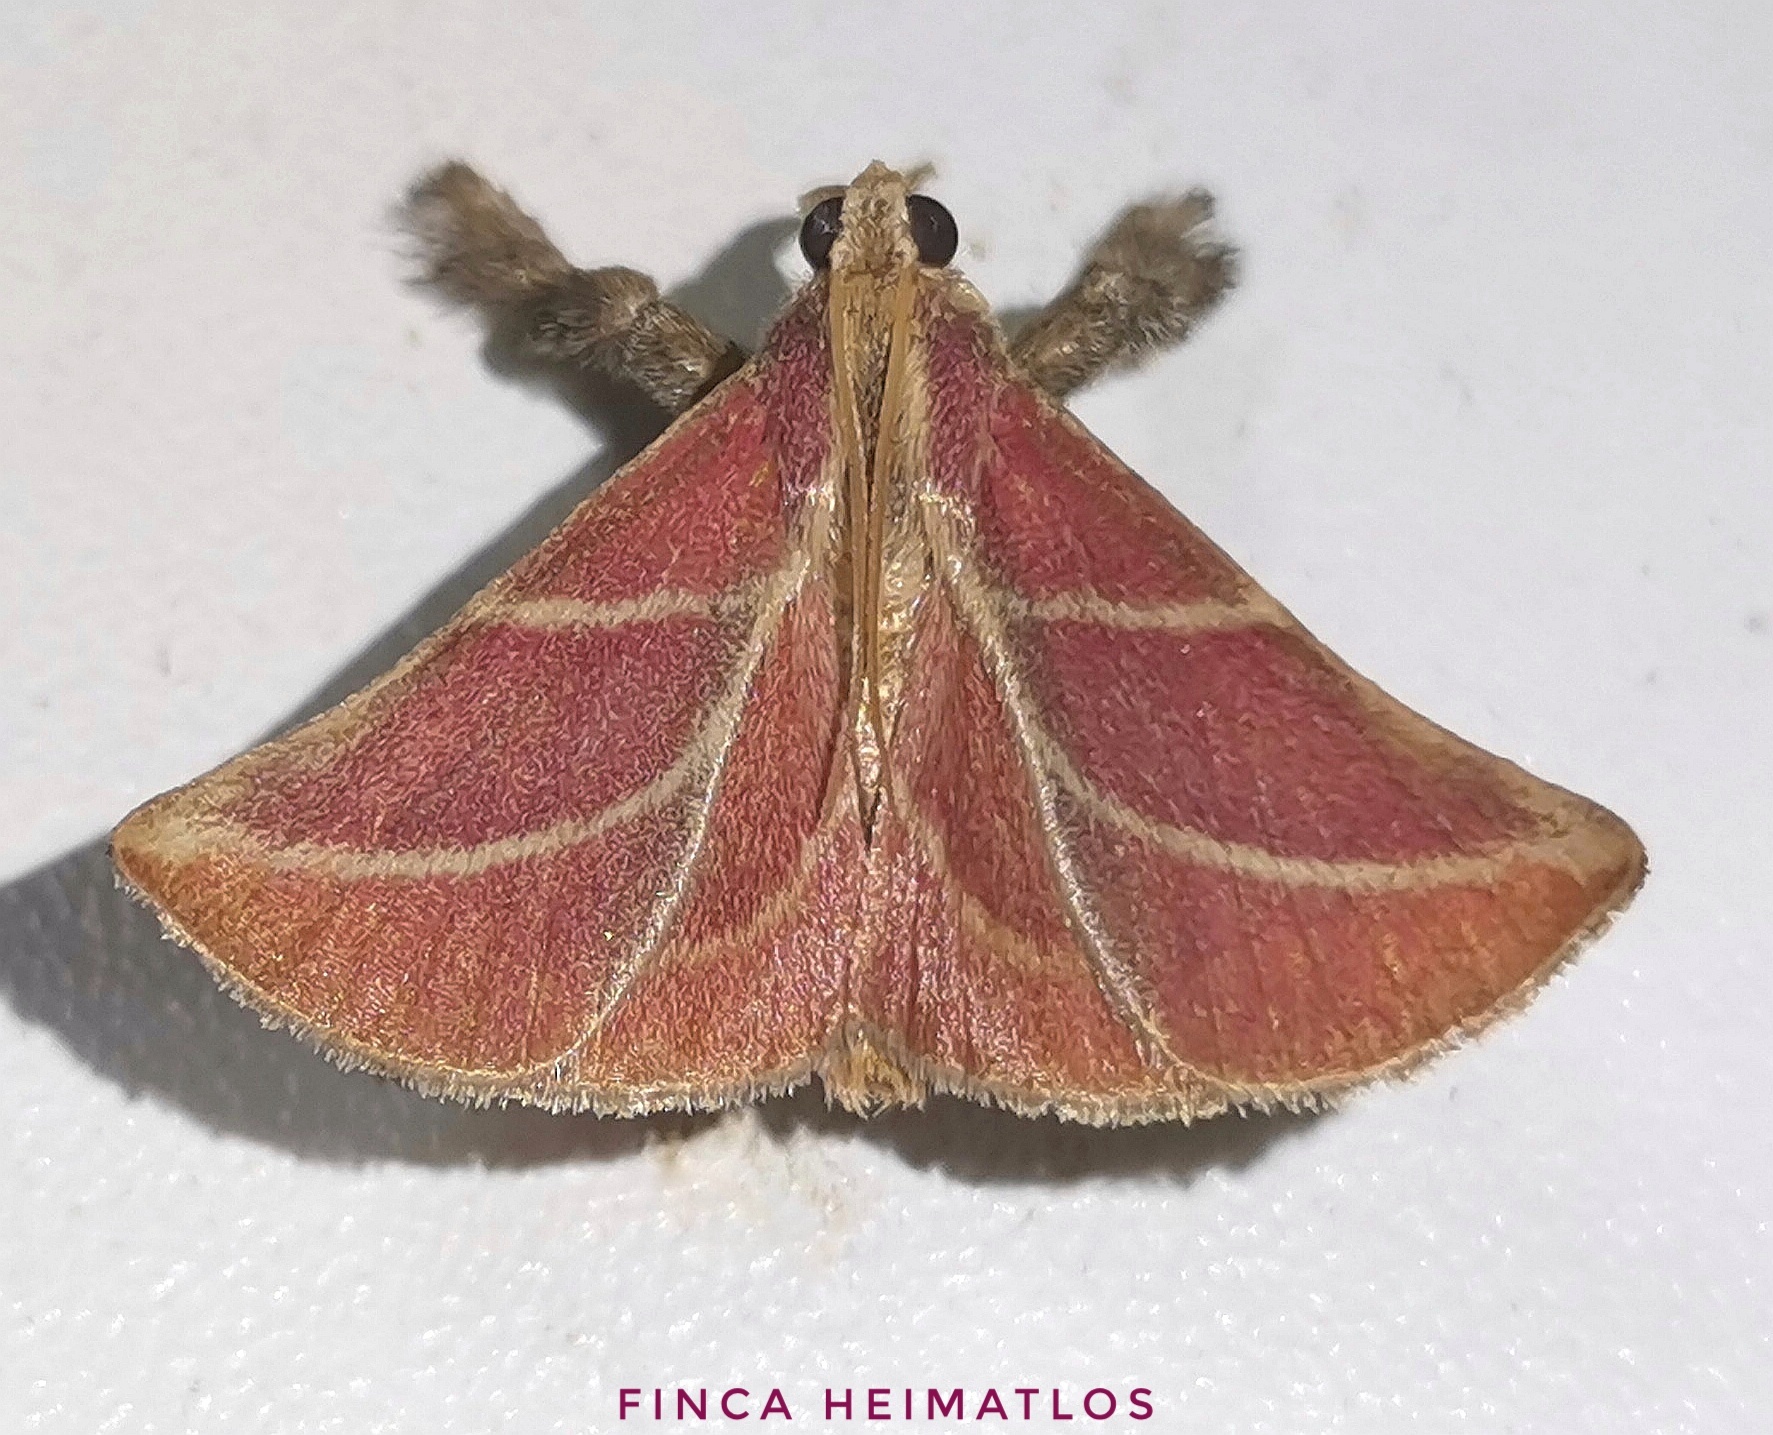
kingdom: Animalia
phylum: Arthropoda
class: Insecta
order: Lepidoptera
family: Pyralidae
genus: Pachypodistes
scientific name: Pachypodistes goeldii
